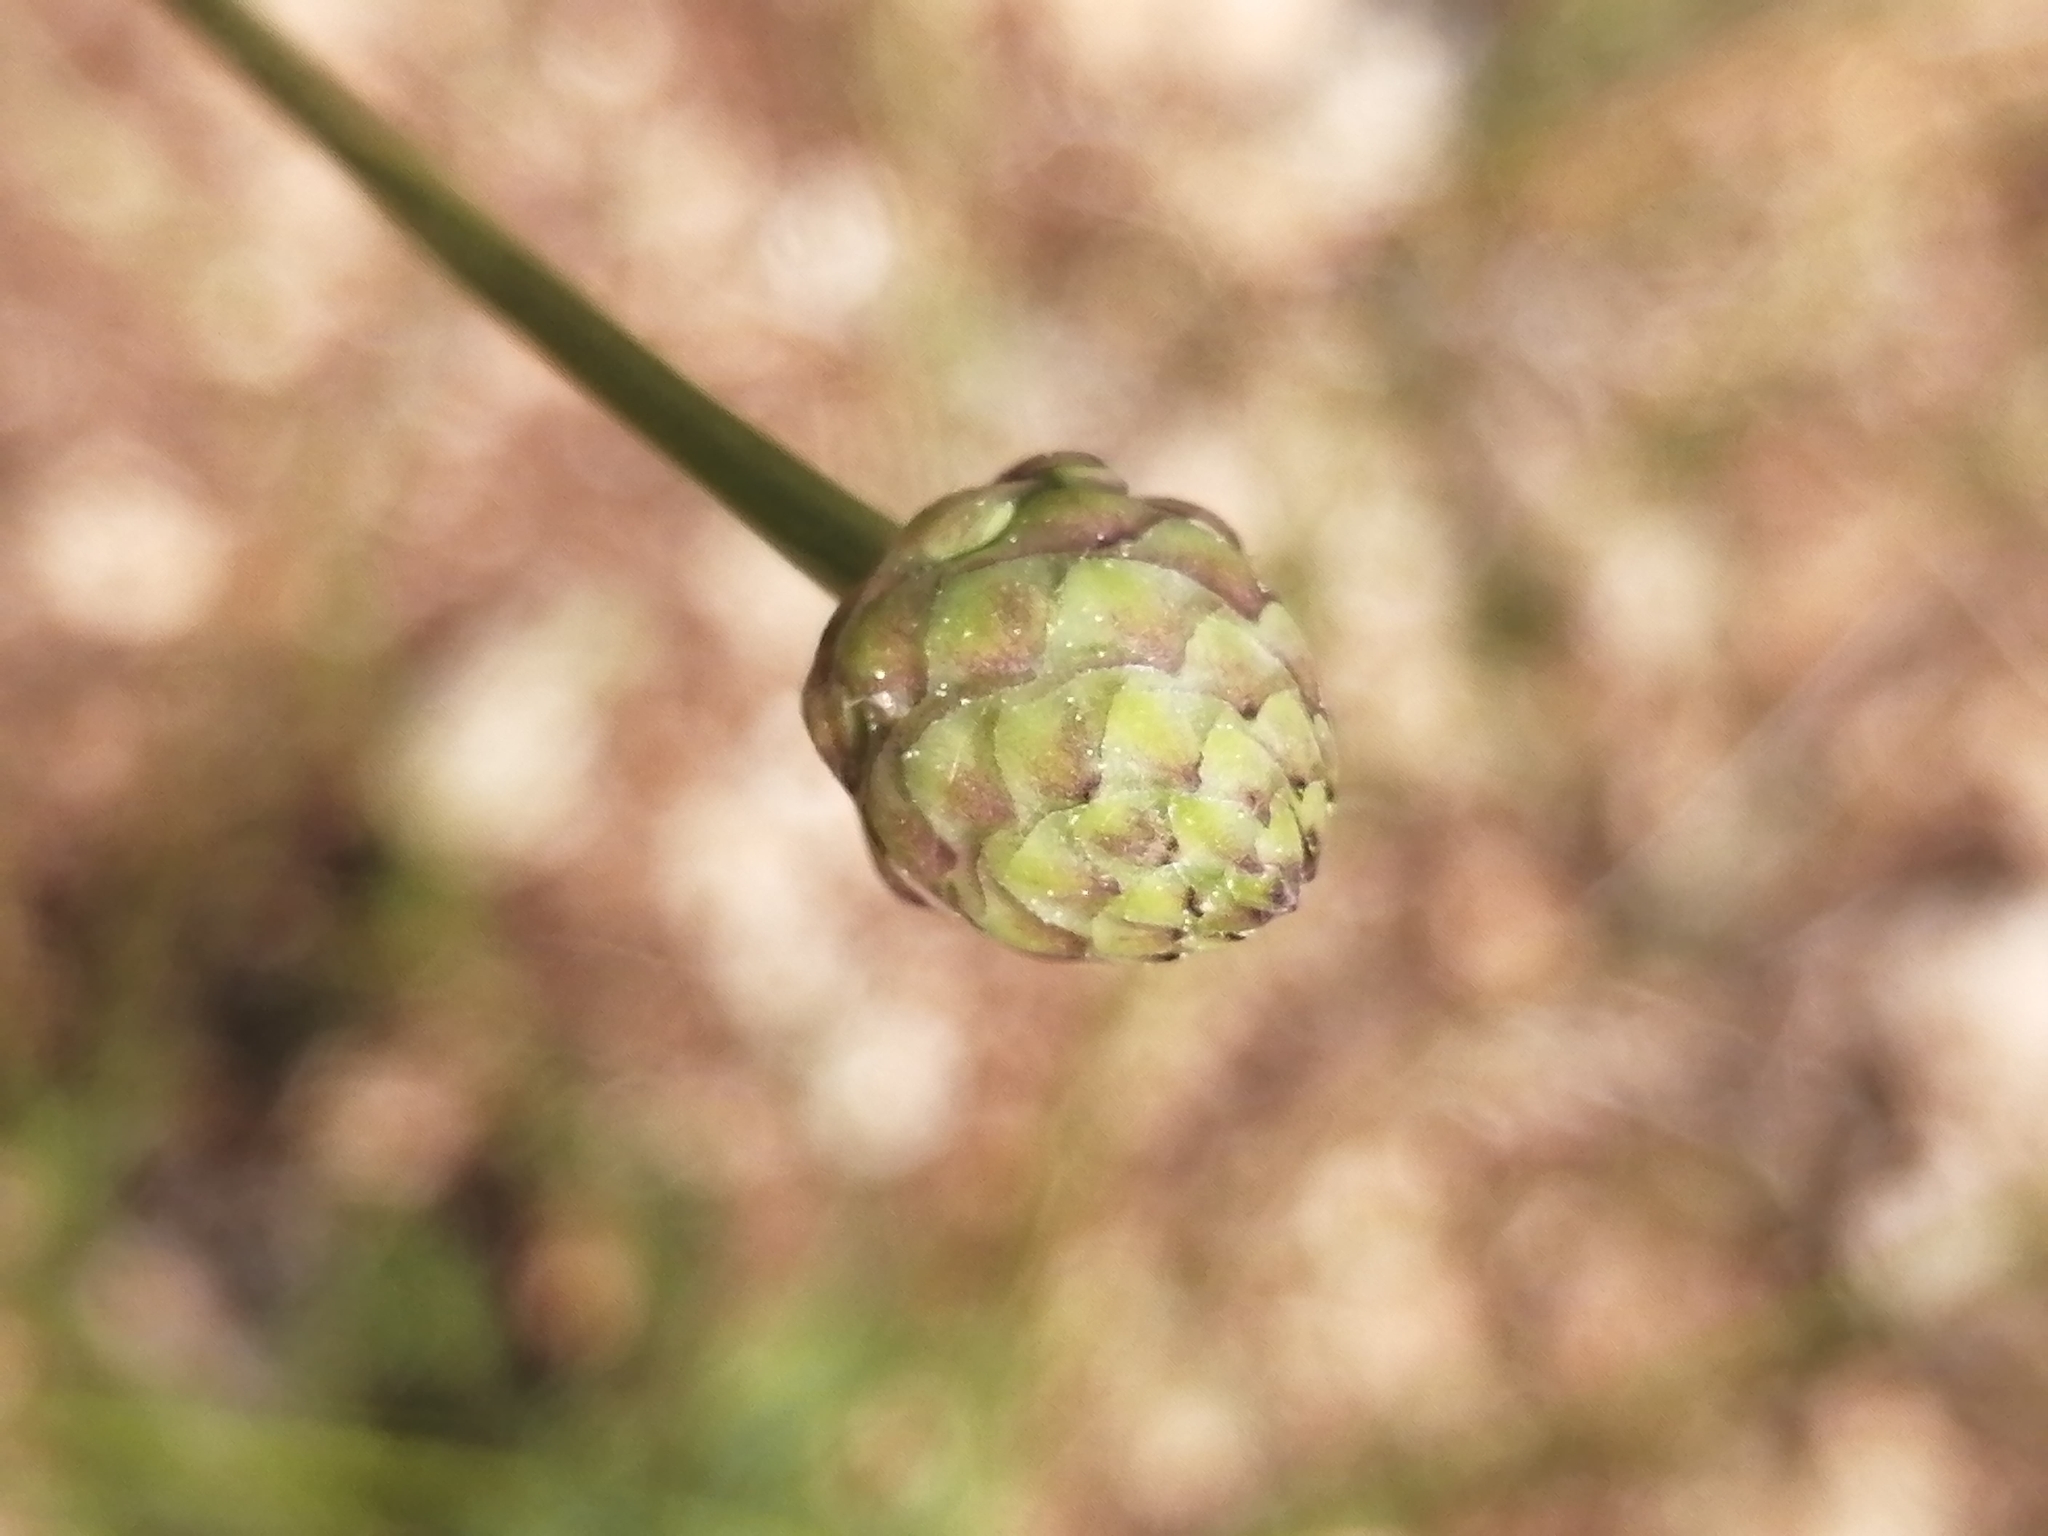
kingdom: Plantae
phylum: Tracheophyta
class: Magnoliopsida
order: Dipsacales
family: Caprifoliaceae
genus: Cephalaria
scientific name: Cephalaria joppensis
